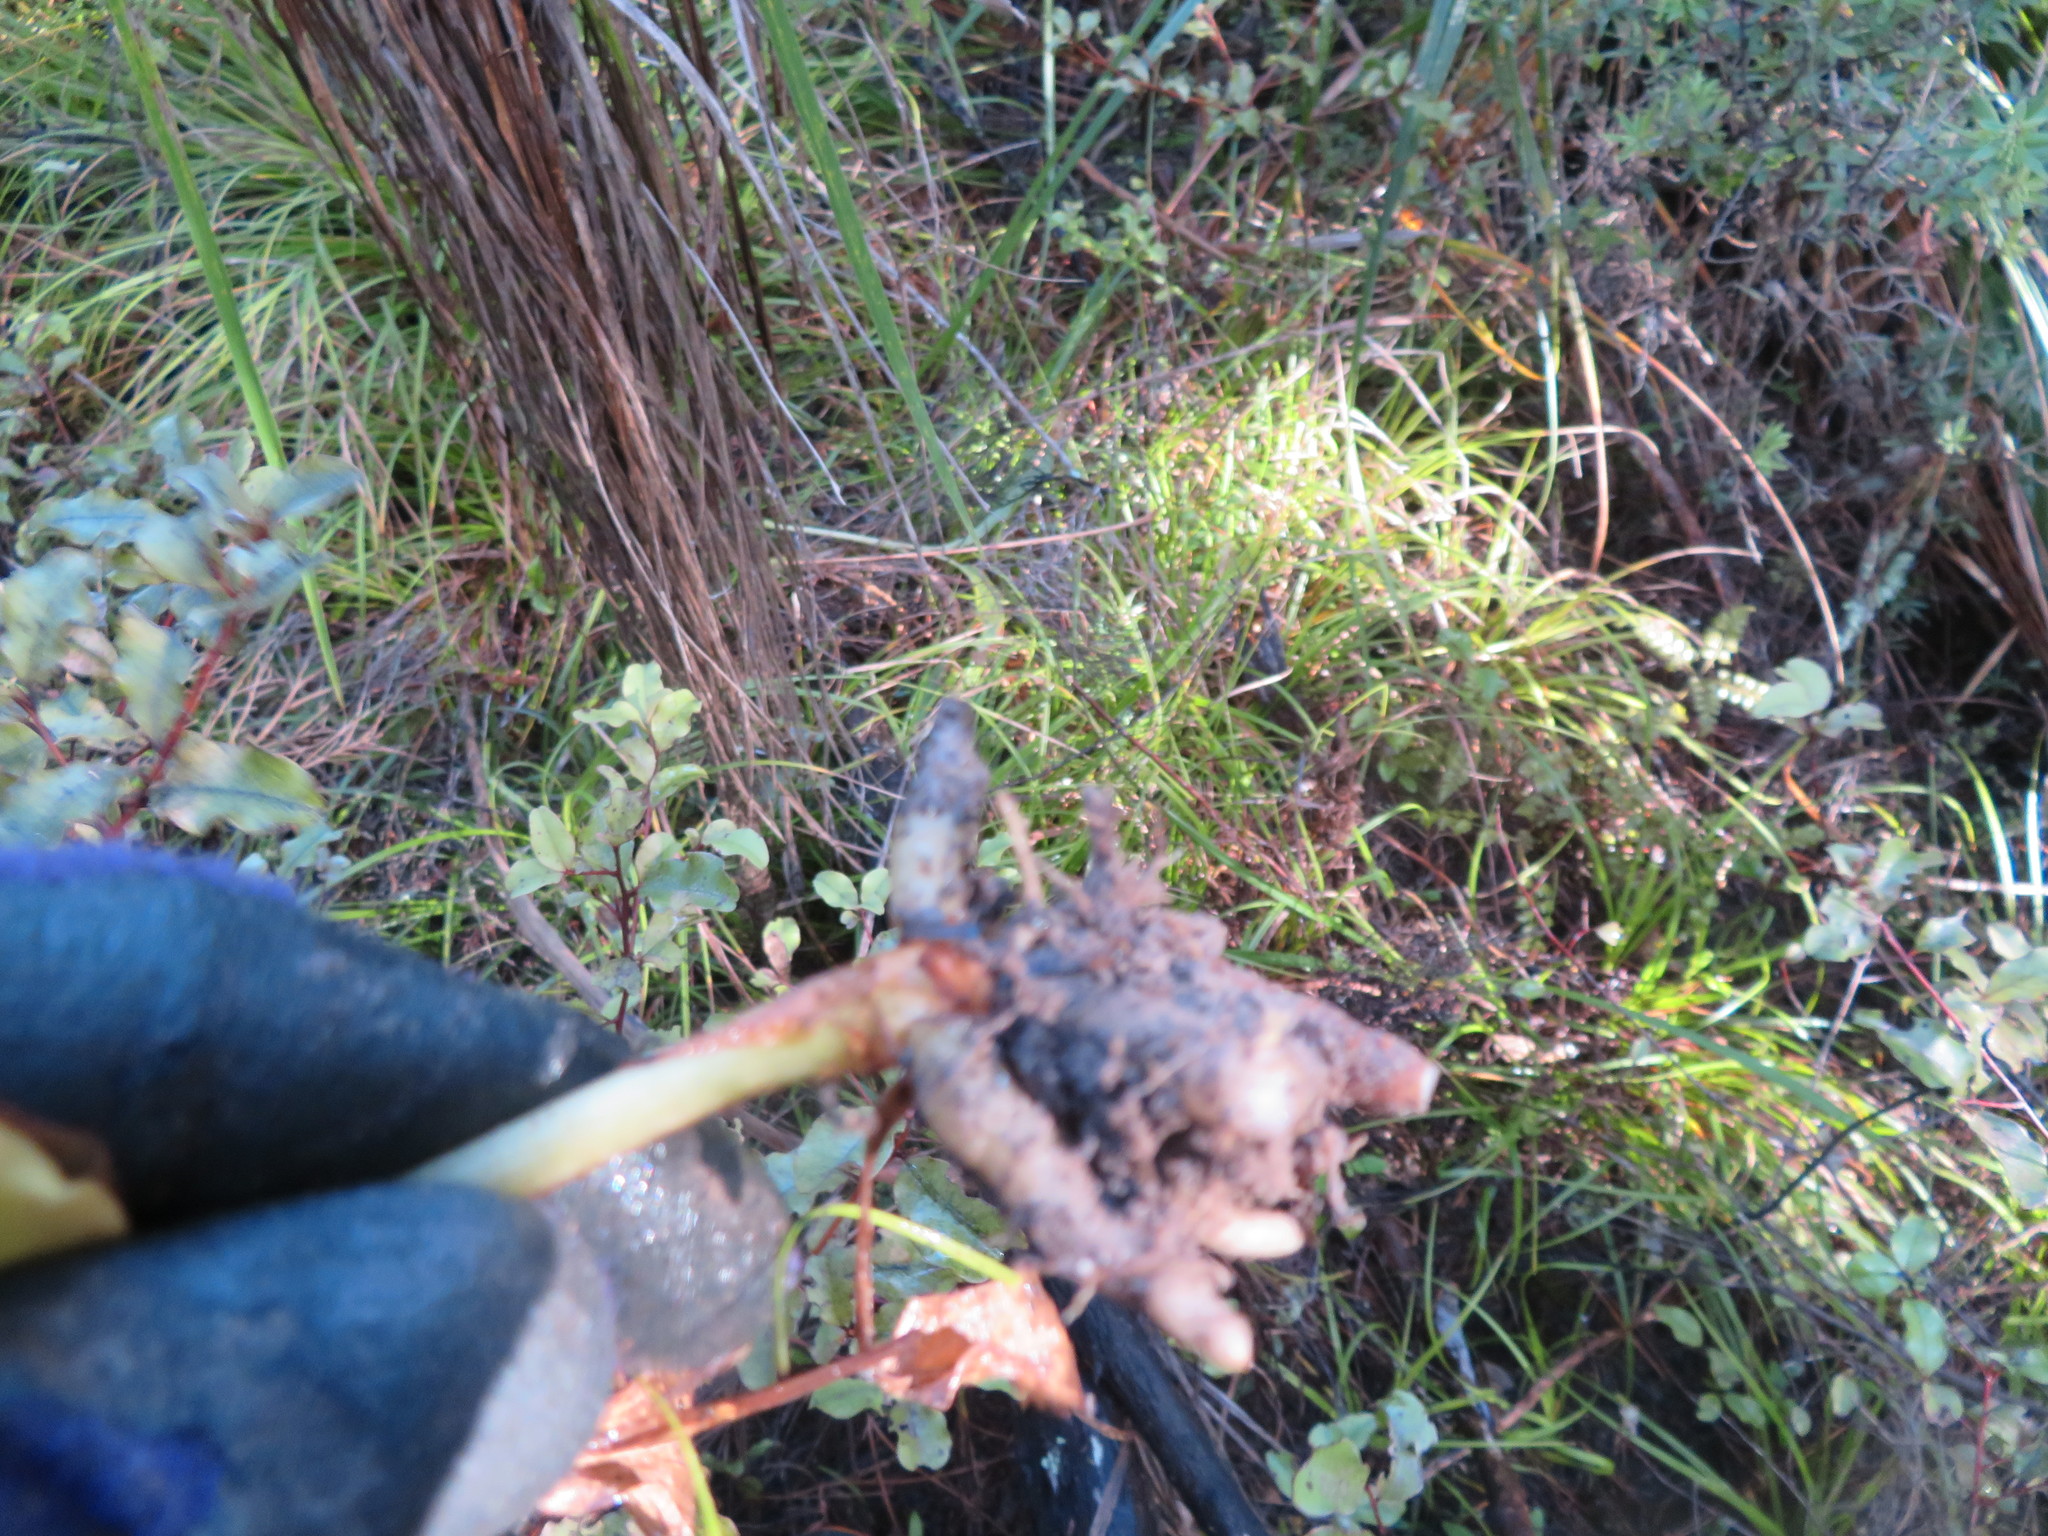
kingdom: Plantae
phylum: Tracheophyta
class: Liliopsida
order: Zingiberales
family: Zingiberaceae
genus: Hedychium
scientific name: Hedychium gardnerianum
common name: Himalayan ginger
